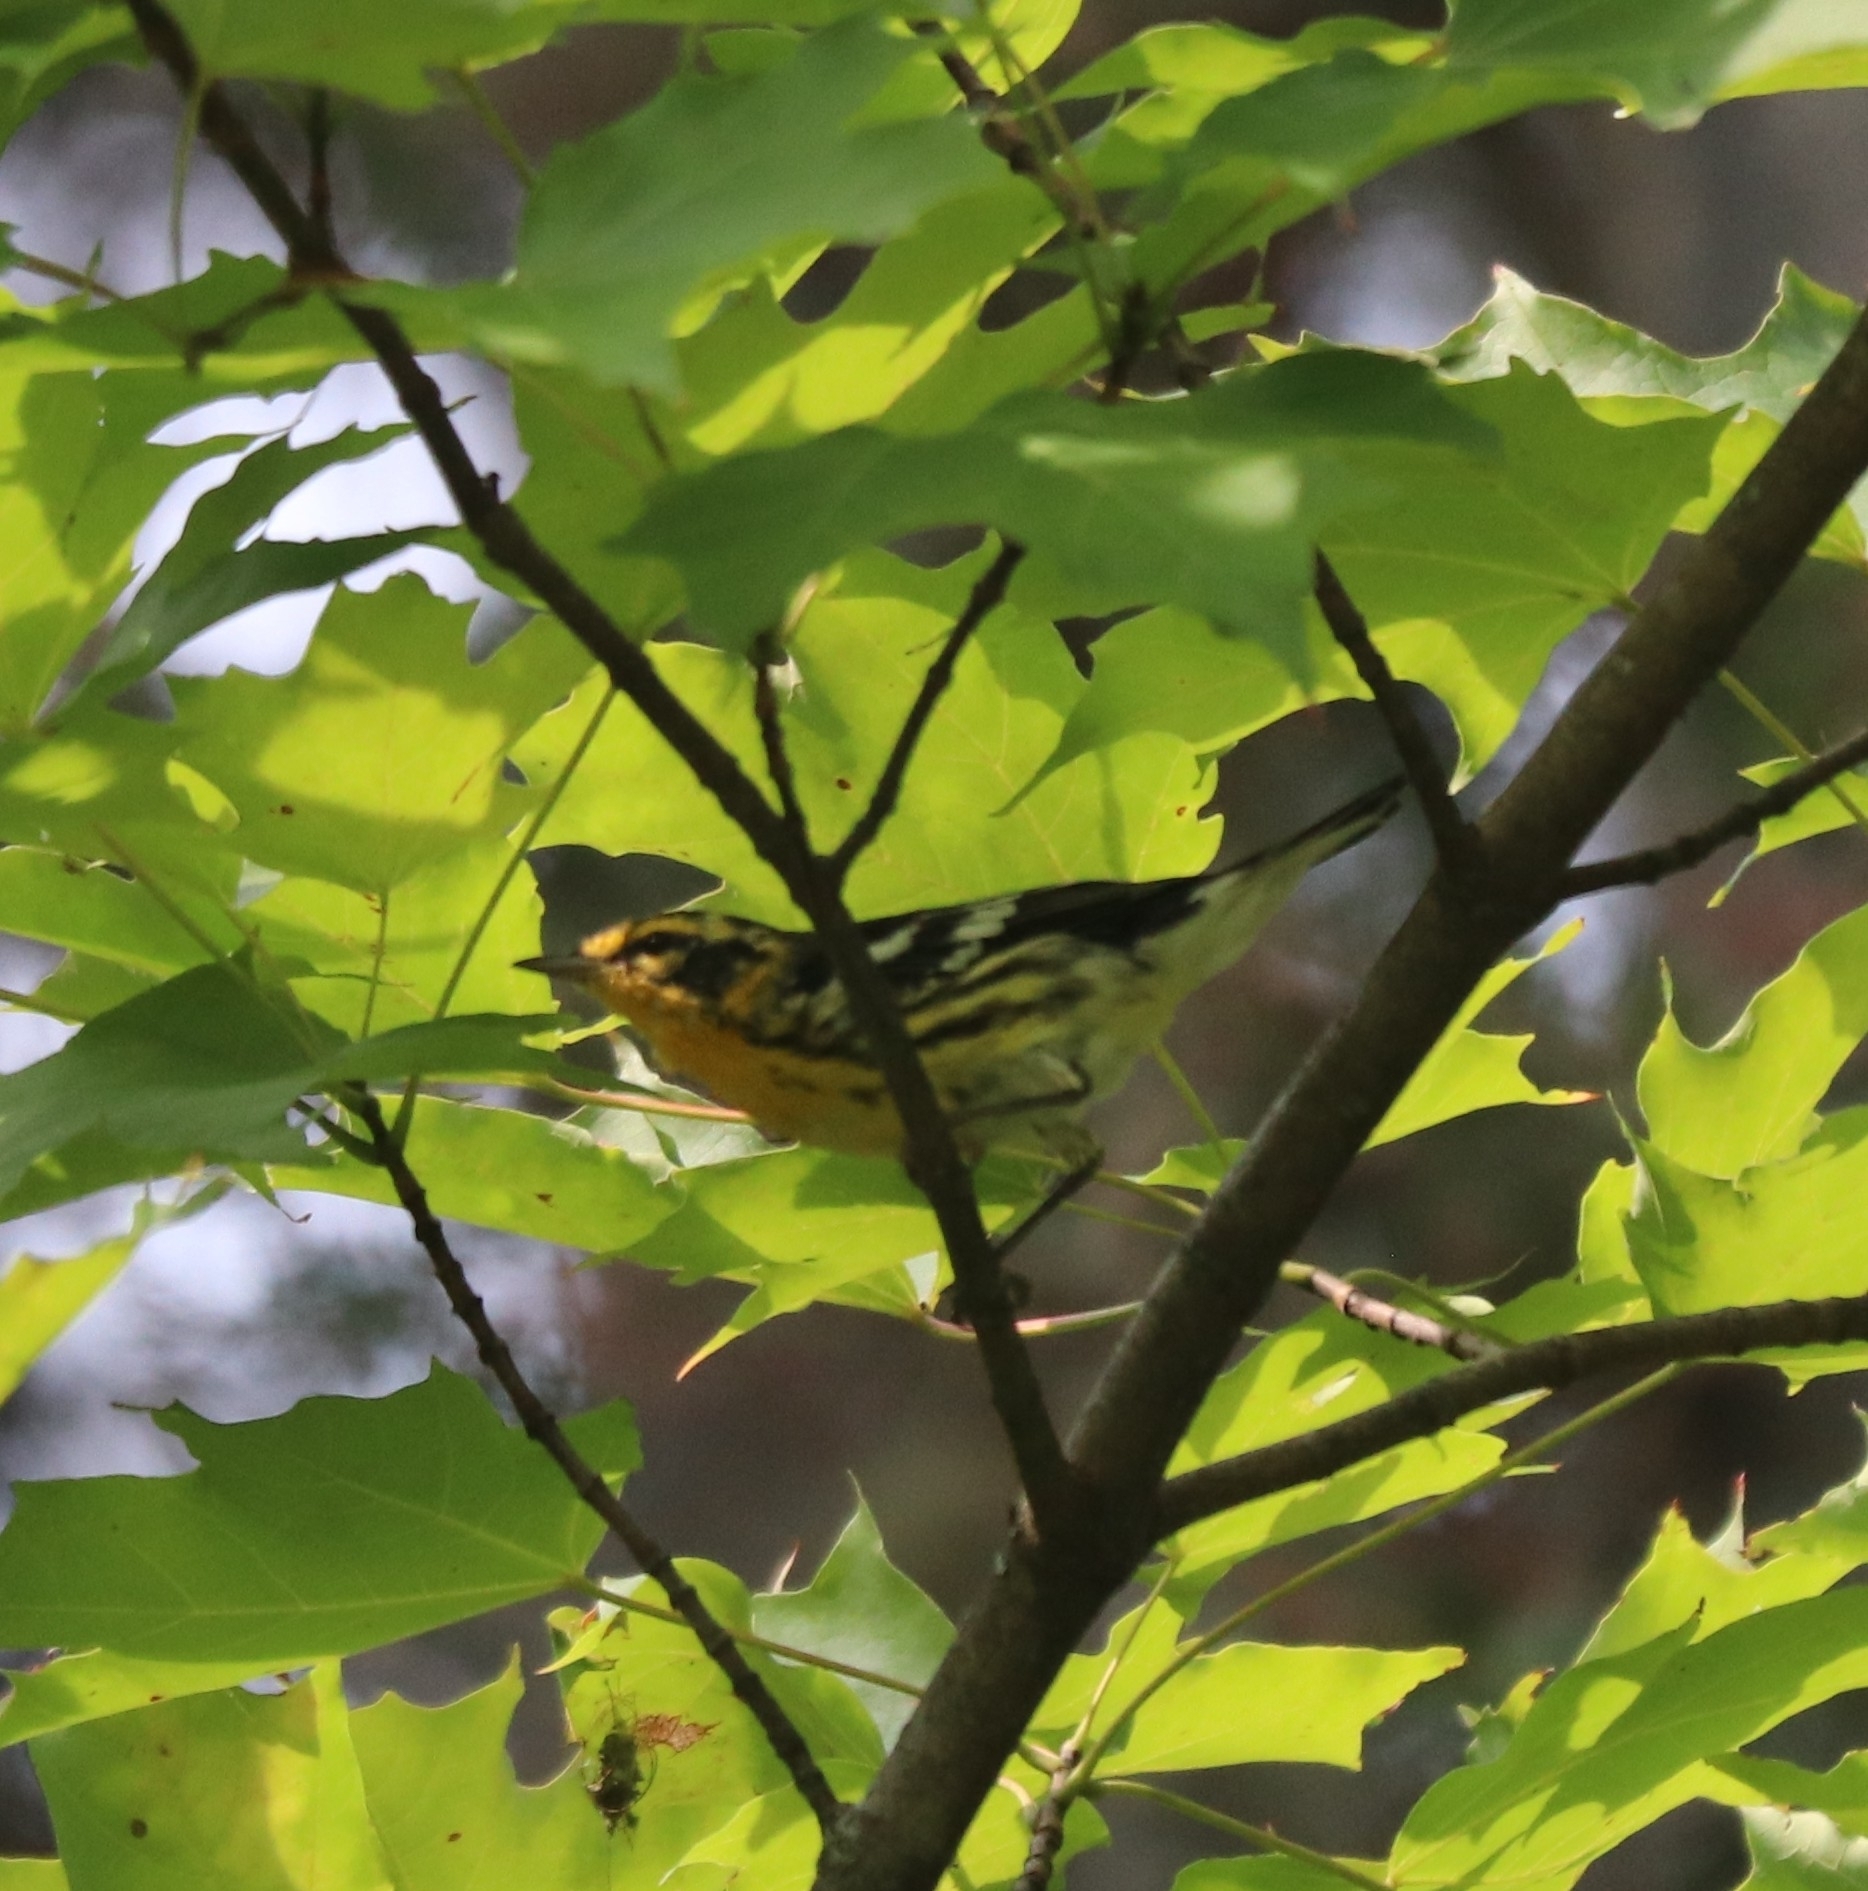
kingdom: Animalia
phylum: Chordata
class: Aves
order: Passeriformes
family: Parulidae
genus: Setophaga
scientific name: Setophaga fusca
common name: Blackburnian warbler
